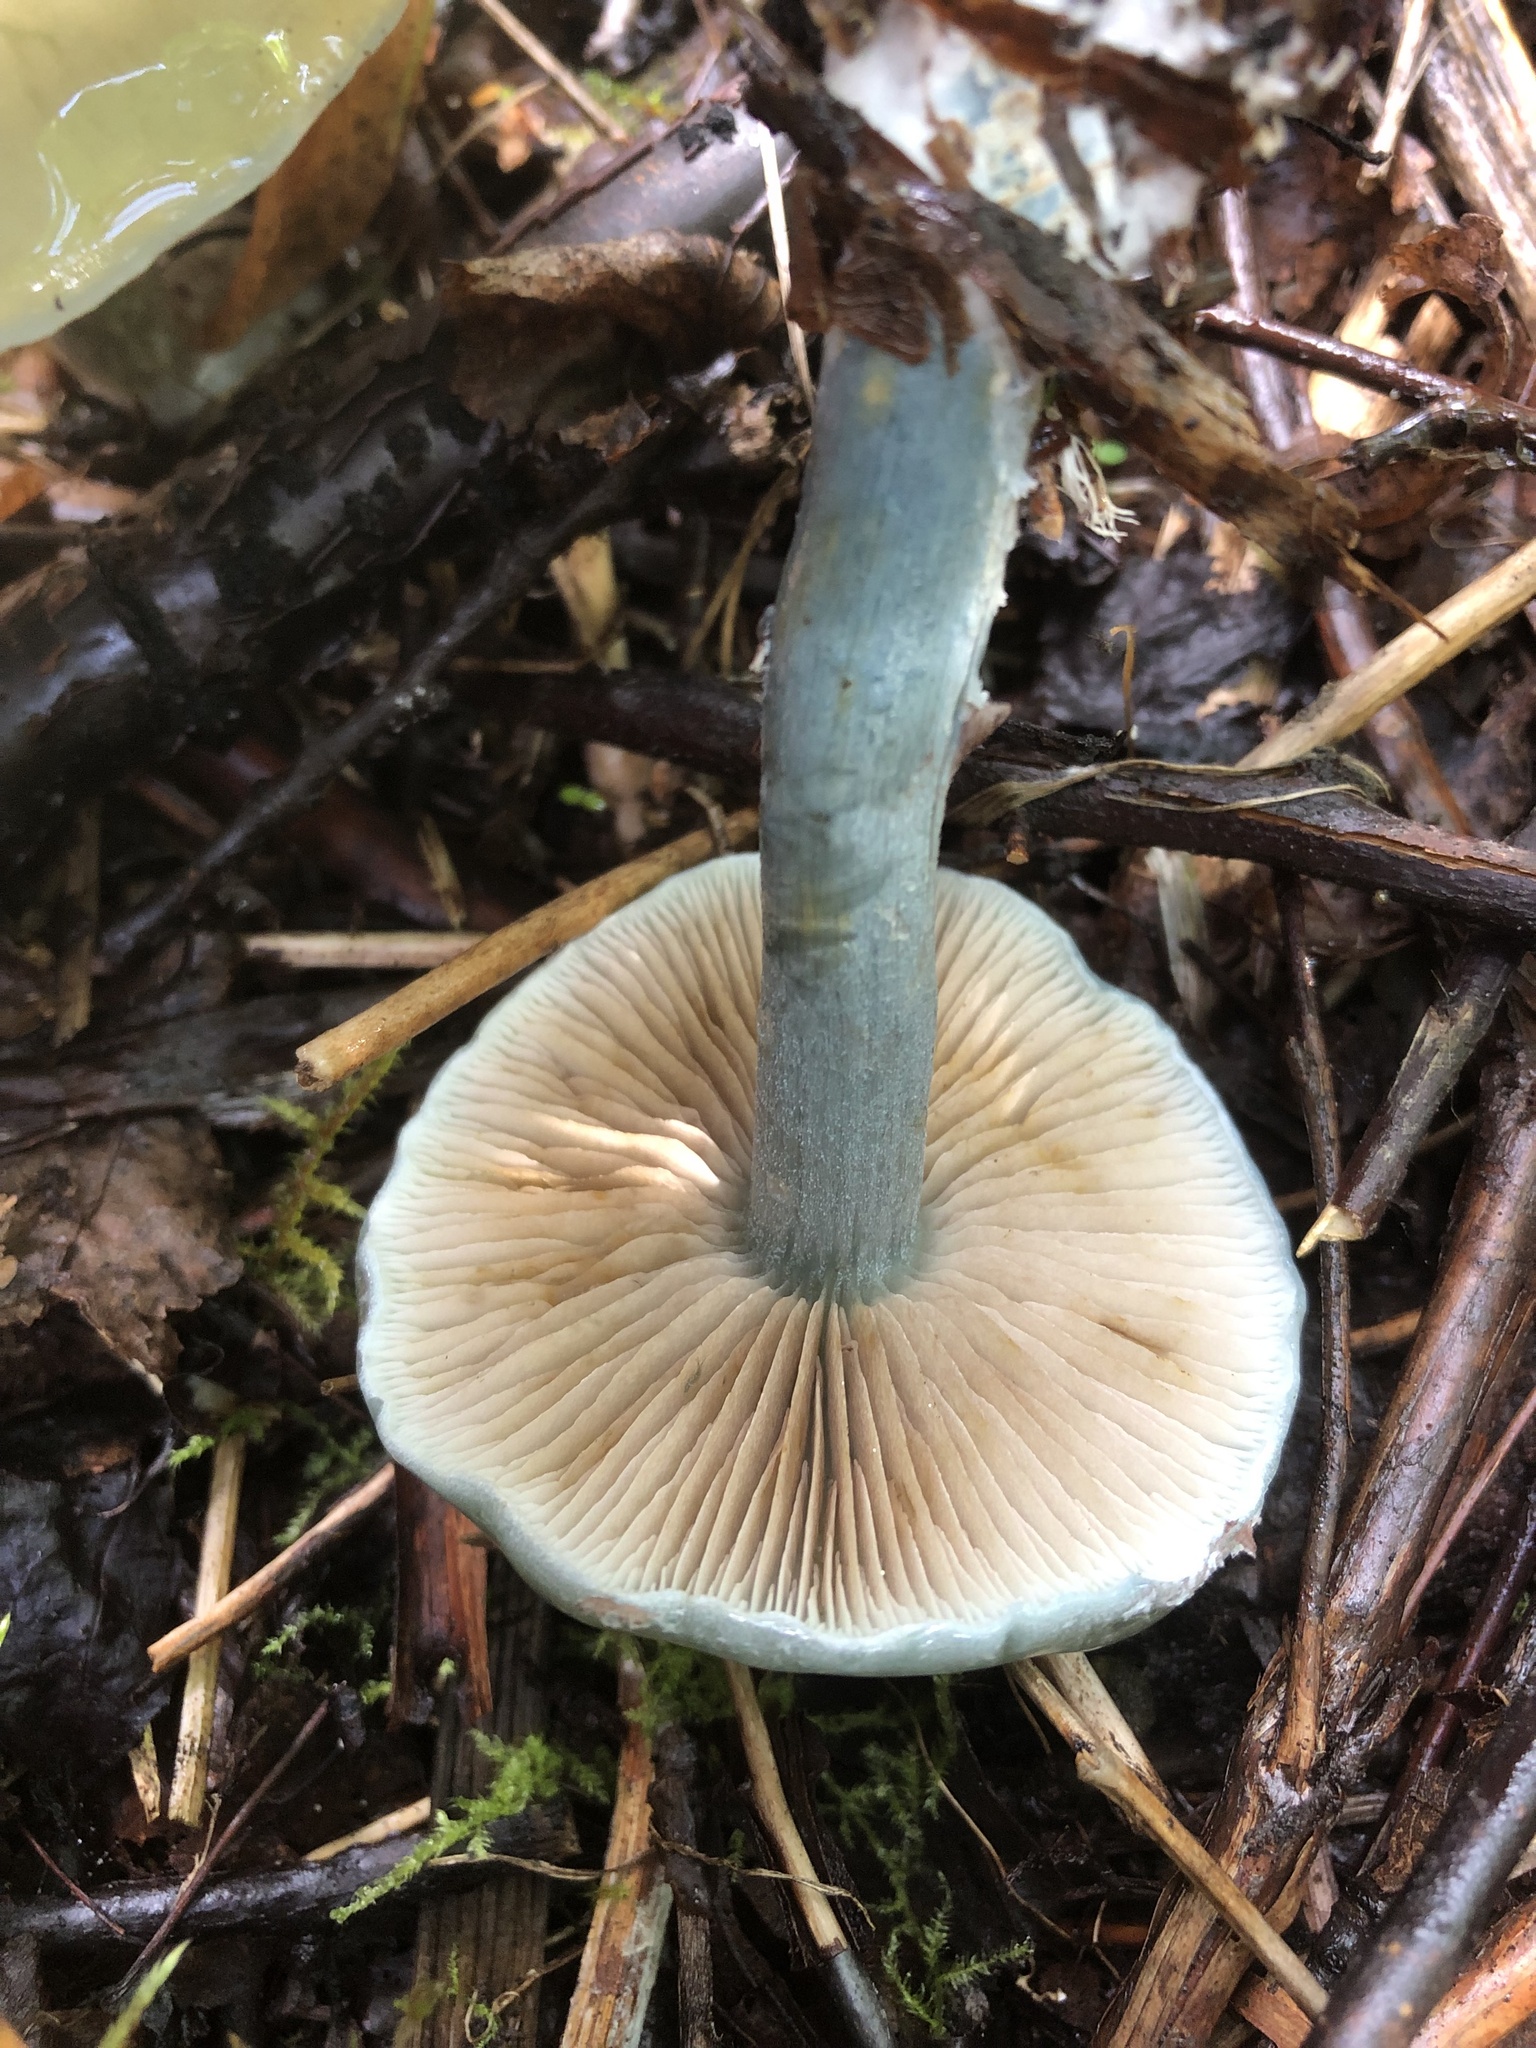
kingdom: Fungi
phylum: Basidiomycota
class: Agaricomycetes
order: Agaricales
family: Strophariaceae
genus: Stropharia
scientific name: Stropharia caerulea
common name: Blue roundhead
